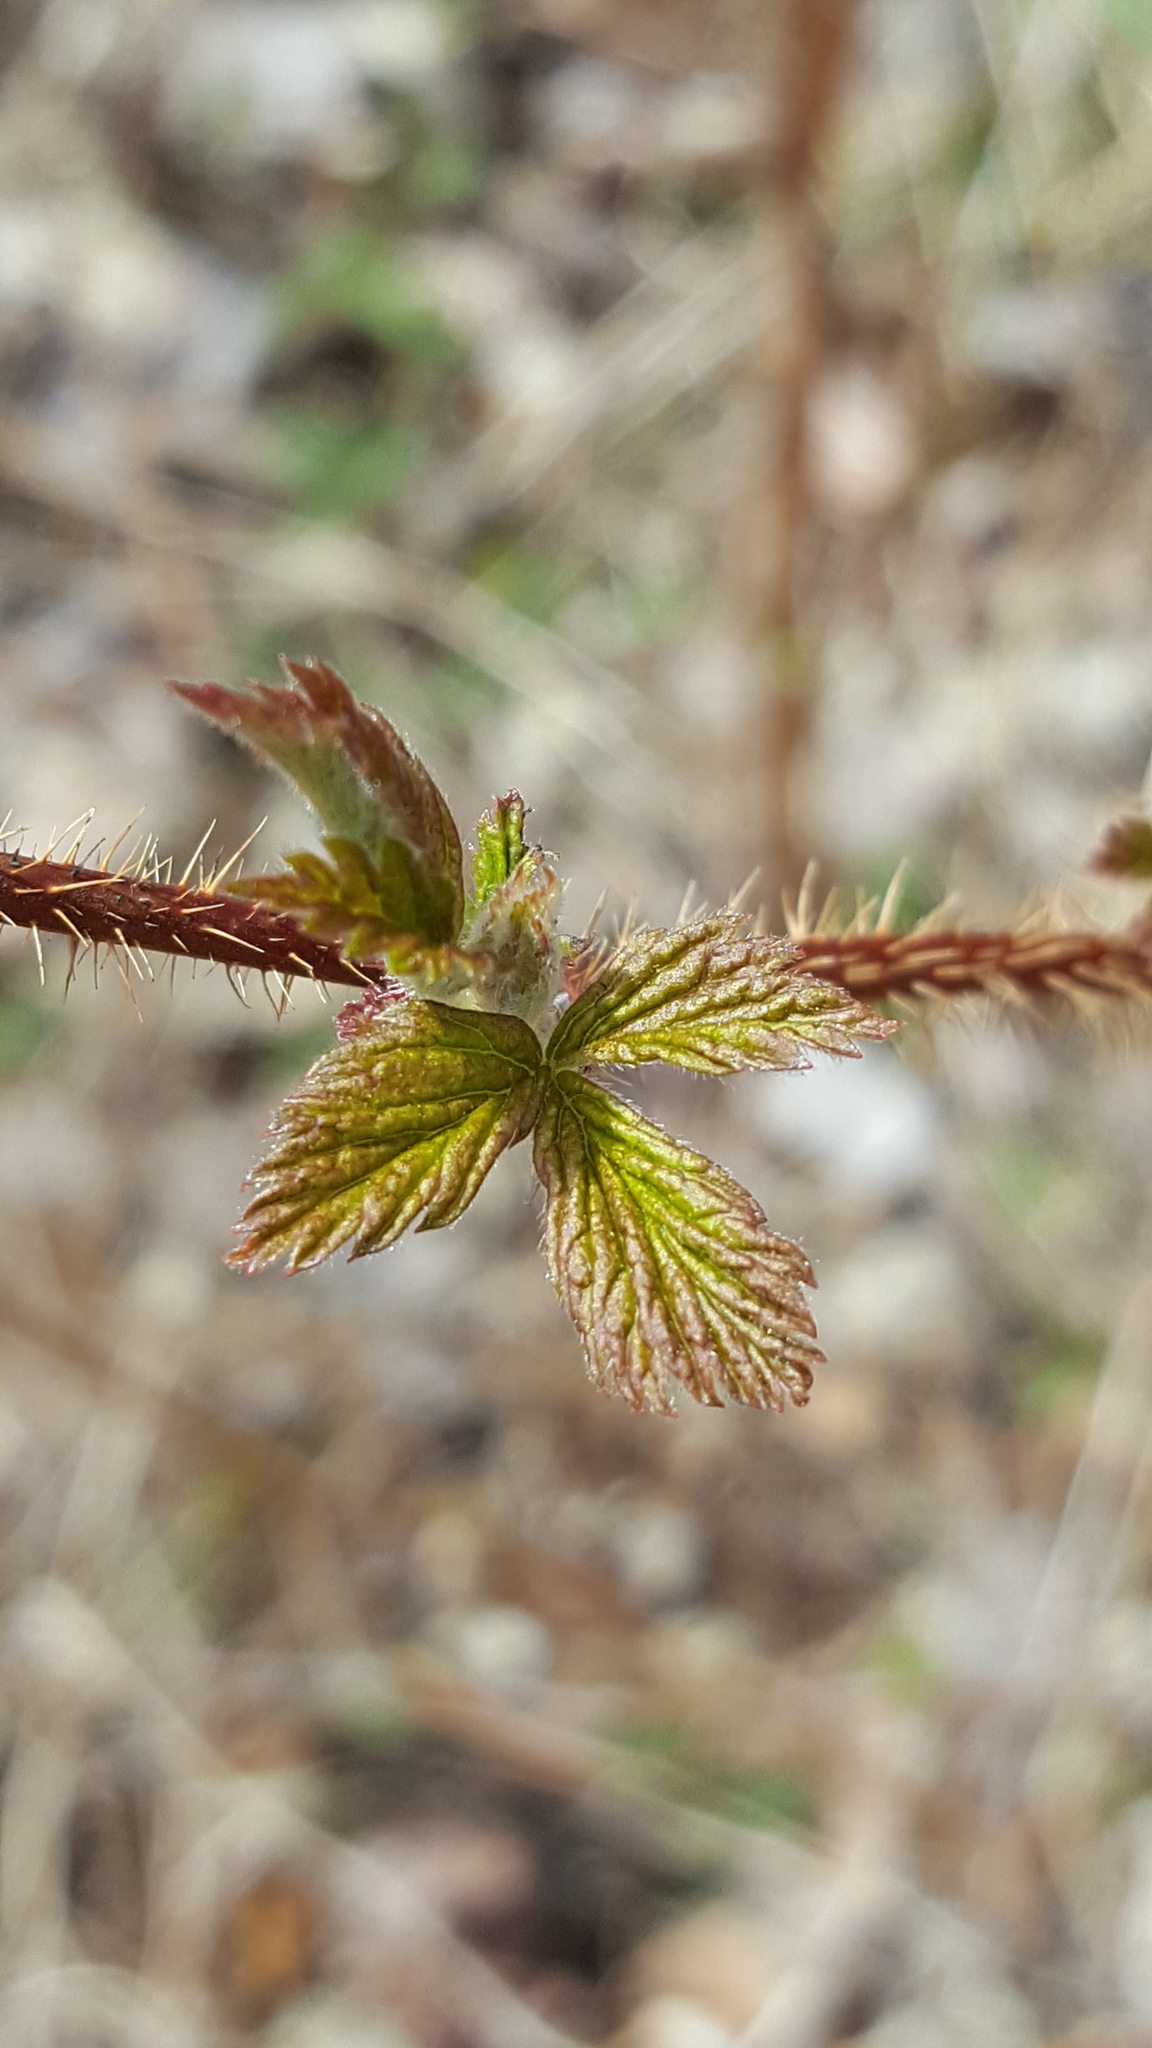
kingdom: Plantae
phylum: Tracheophyta
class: Magnoliopsida
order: Rosales
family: Rosaceae
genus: Rubus
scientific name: Rubus idaeus
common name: Raspberry
